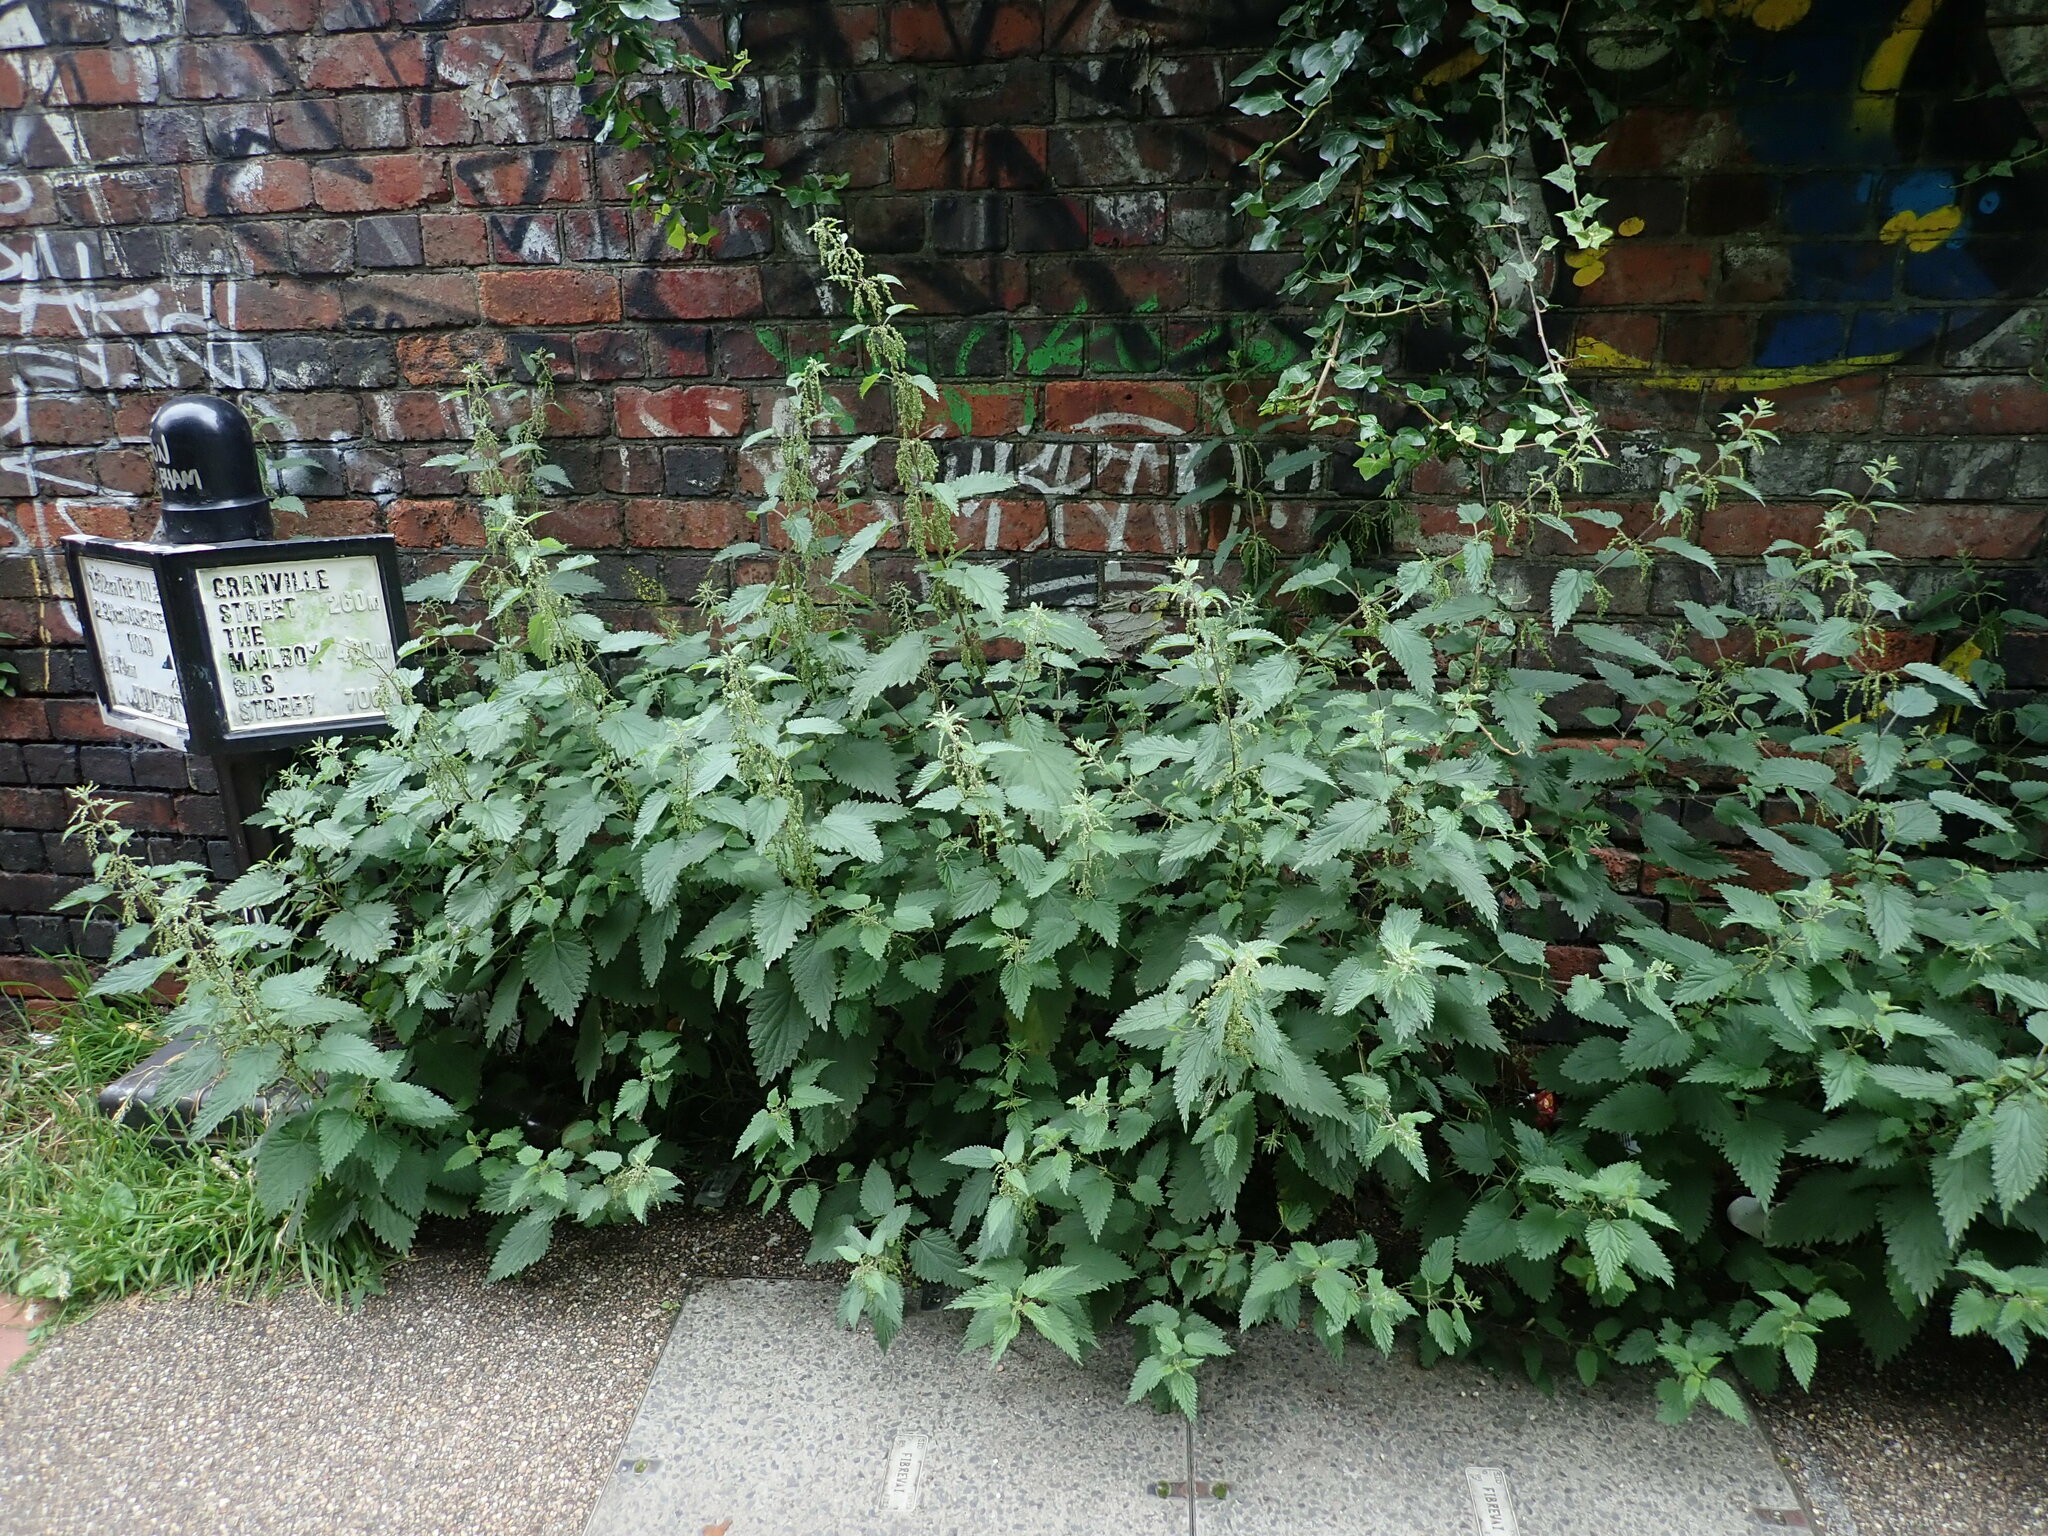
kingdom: Plantae
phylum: Tracheophyta
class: Magnoliopsida
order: Rosales
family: Urticaceae
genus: Urtica
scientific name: Urtica dioica
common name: Common nettle
